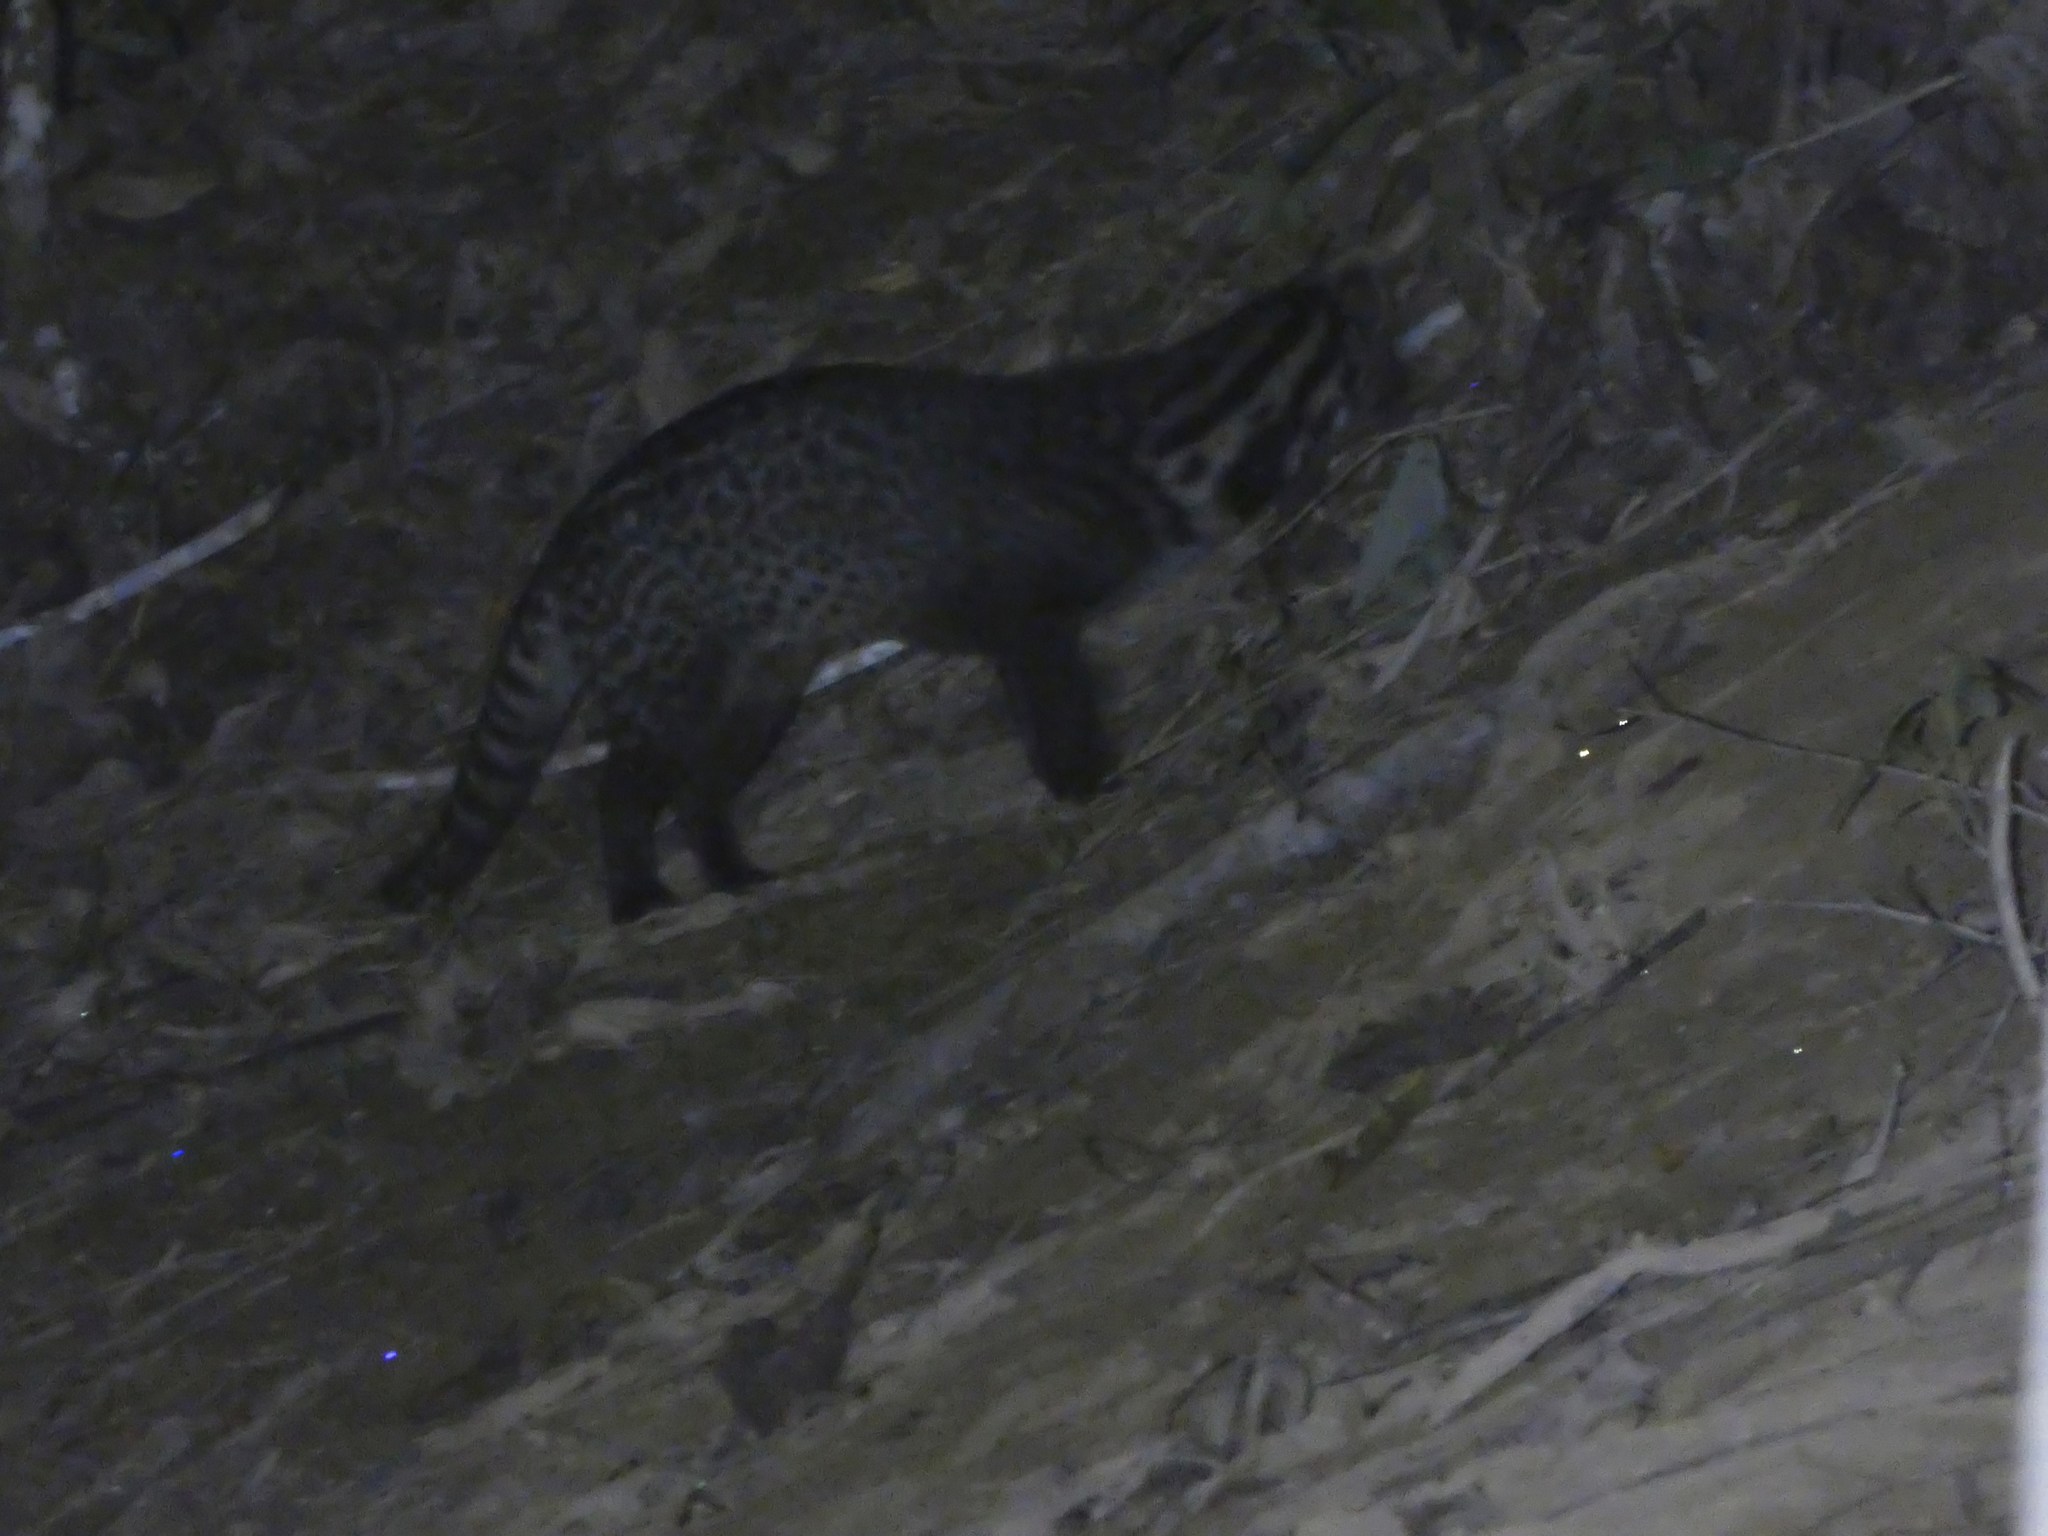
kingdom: Animalia
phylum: Chordata
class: Mammalia
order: Carnivora
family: Viverridae
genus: Viverra
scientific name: Viverra tangalunga
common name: Malayan civet
